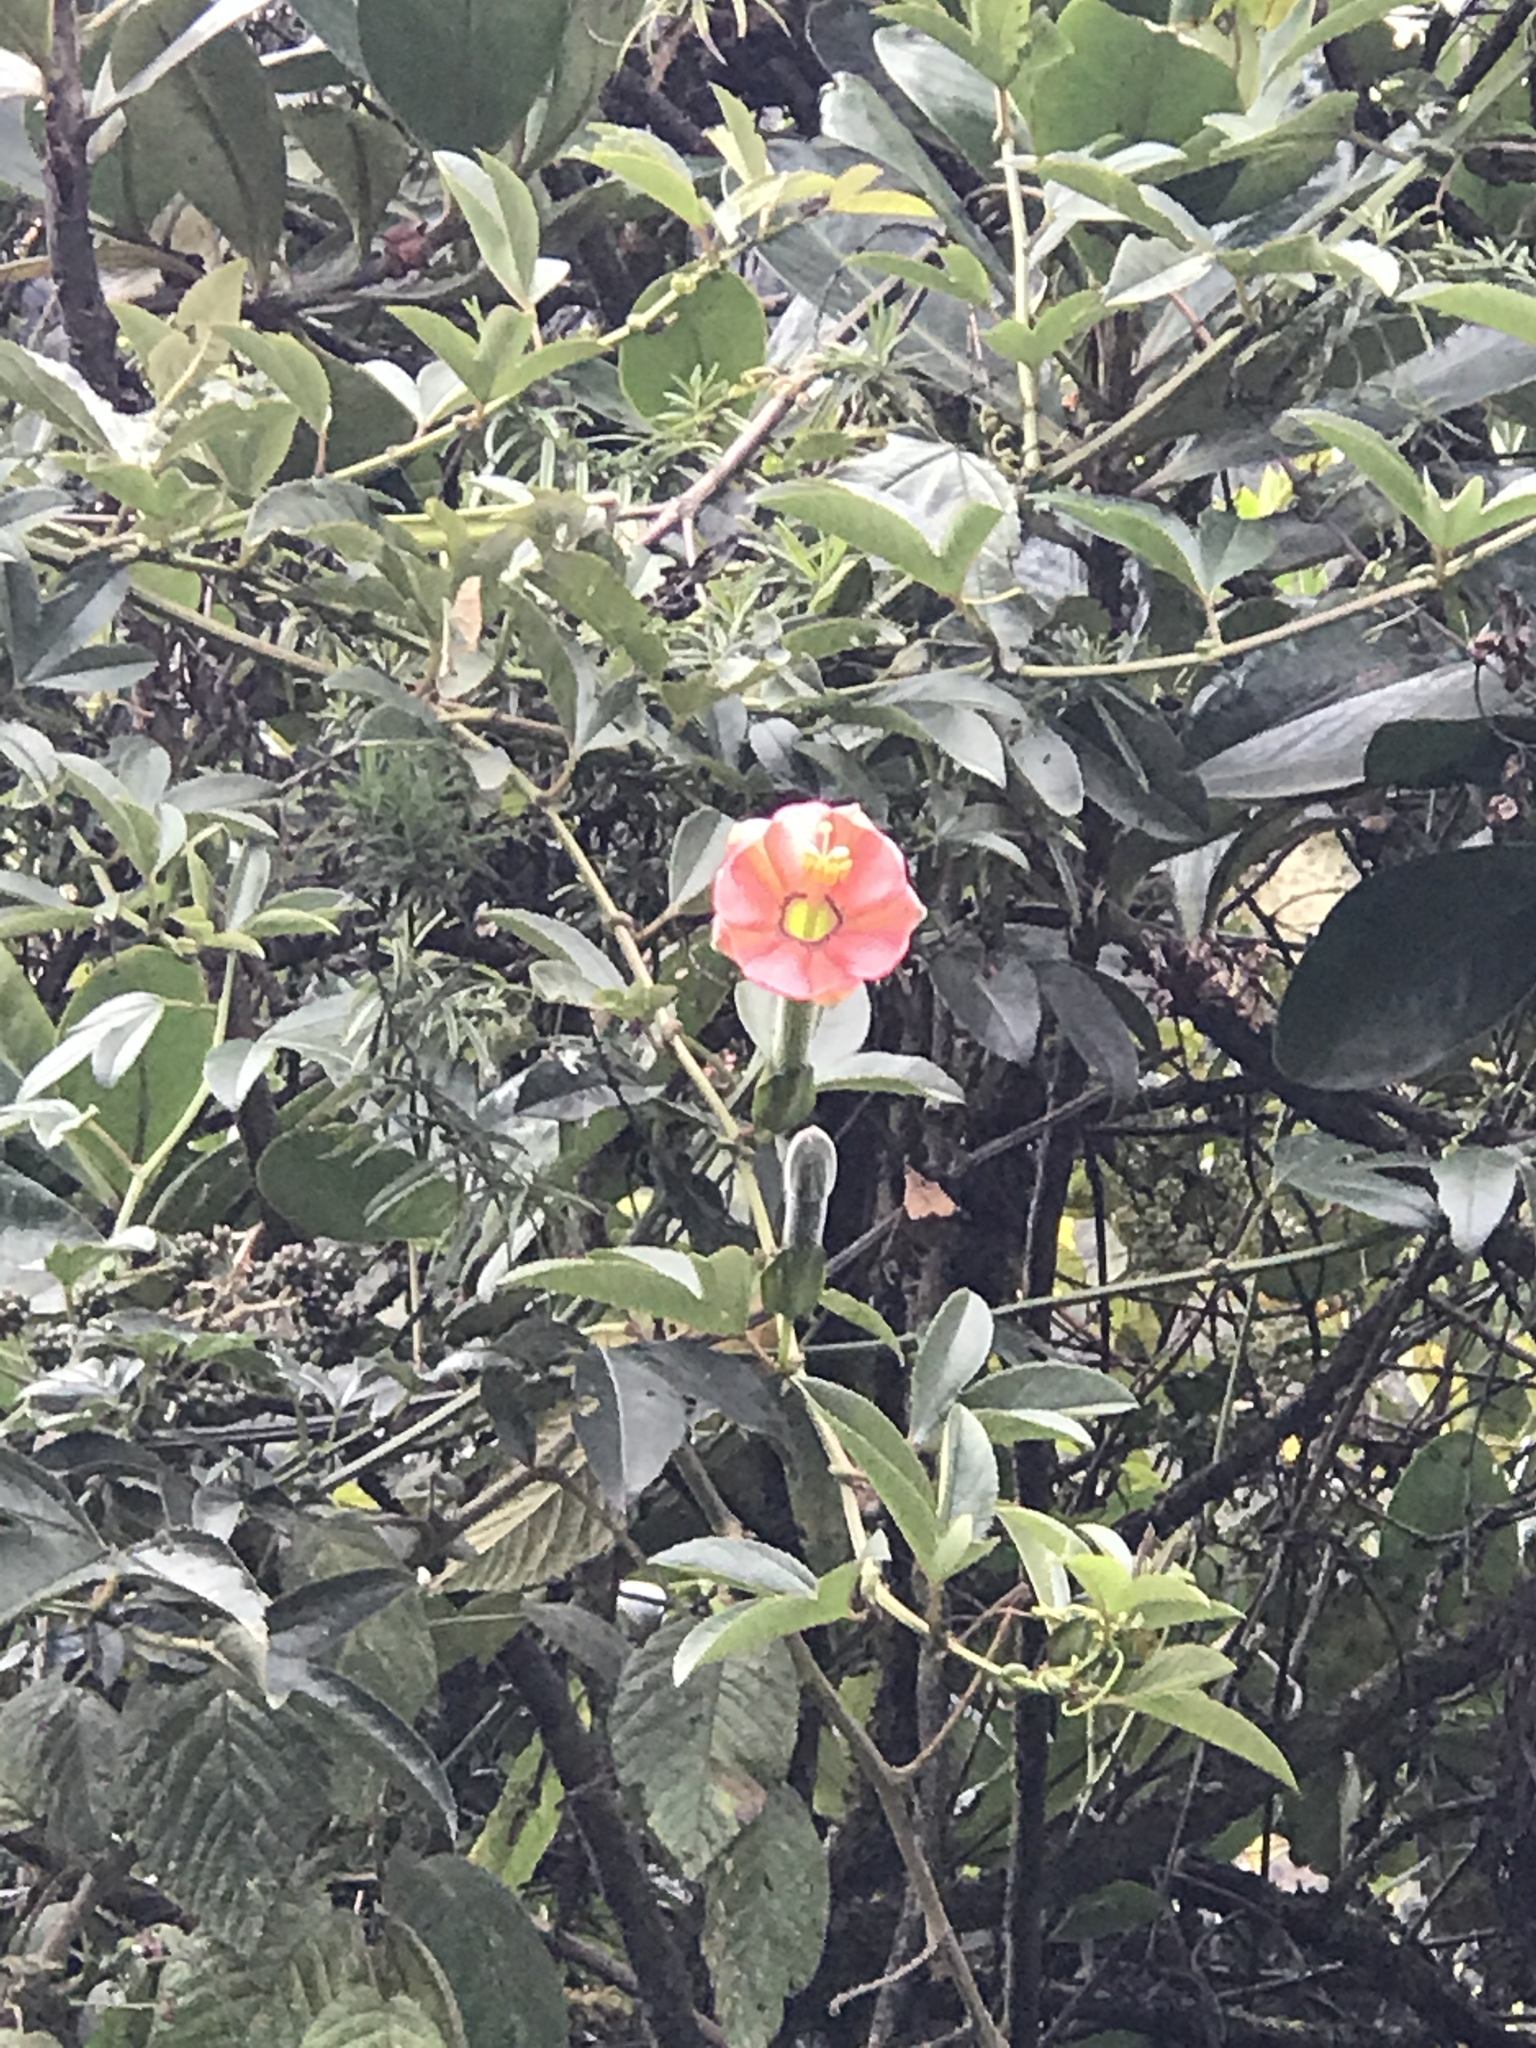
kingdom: Plantae
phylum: Tracheophyta
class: Magnoliopsida
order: Malpighiales
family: Passifloraceae
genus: Passiflora
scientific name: Passiflora mixta
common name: Passion flower
